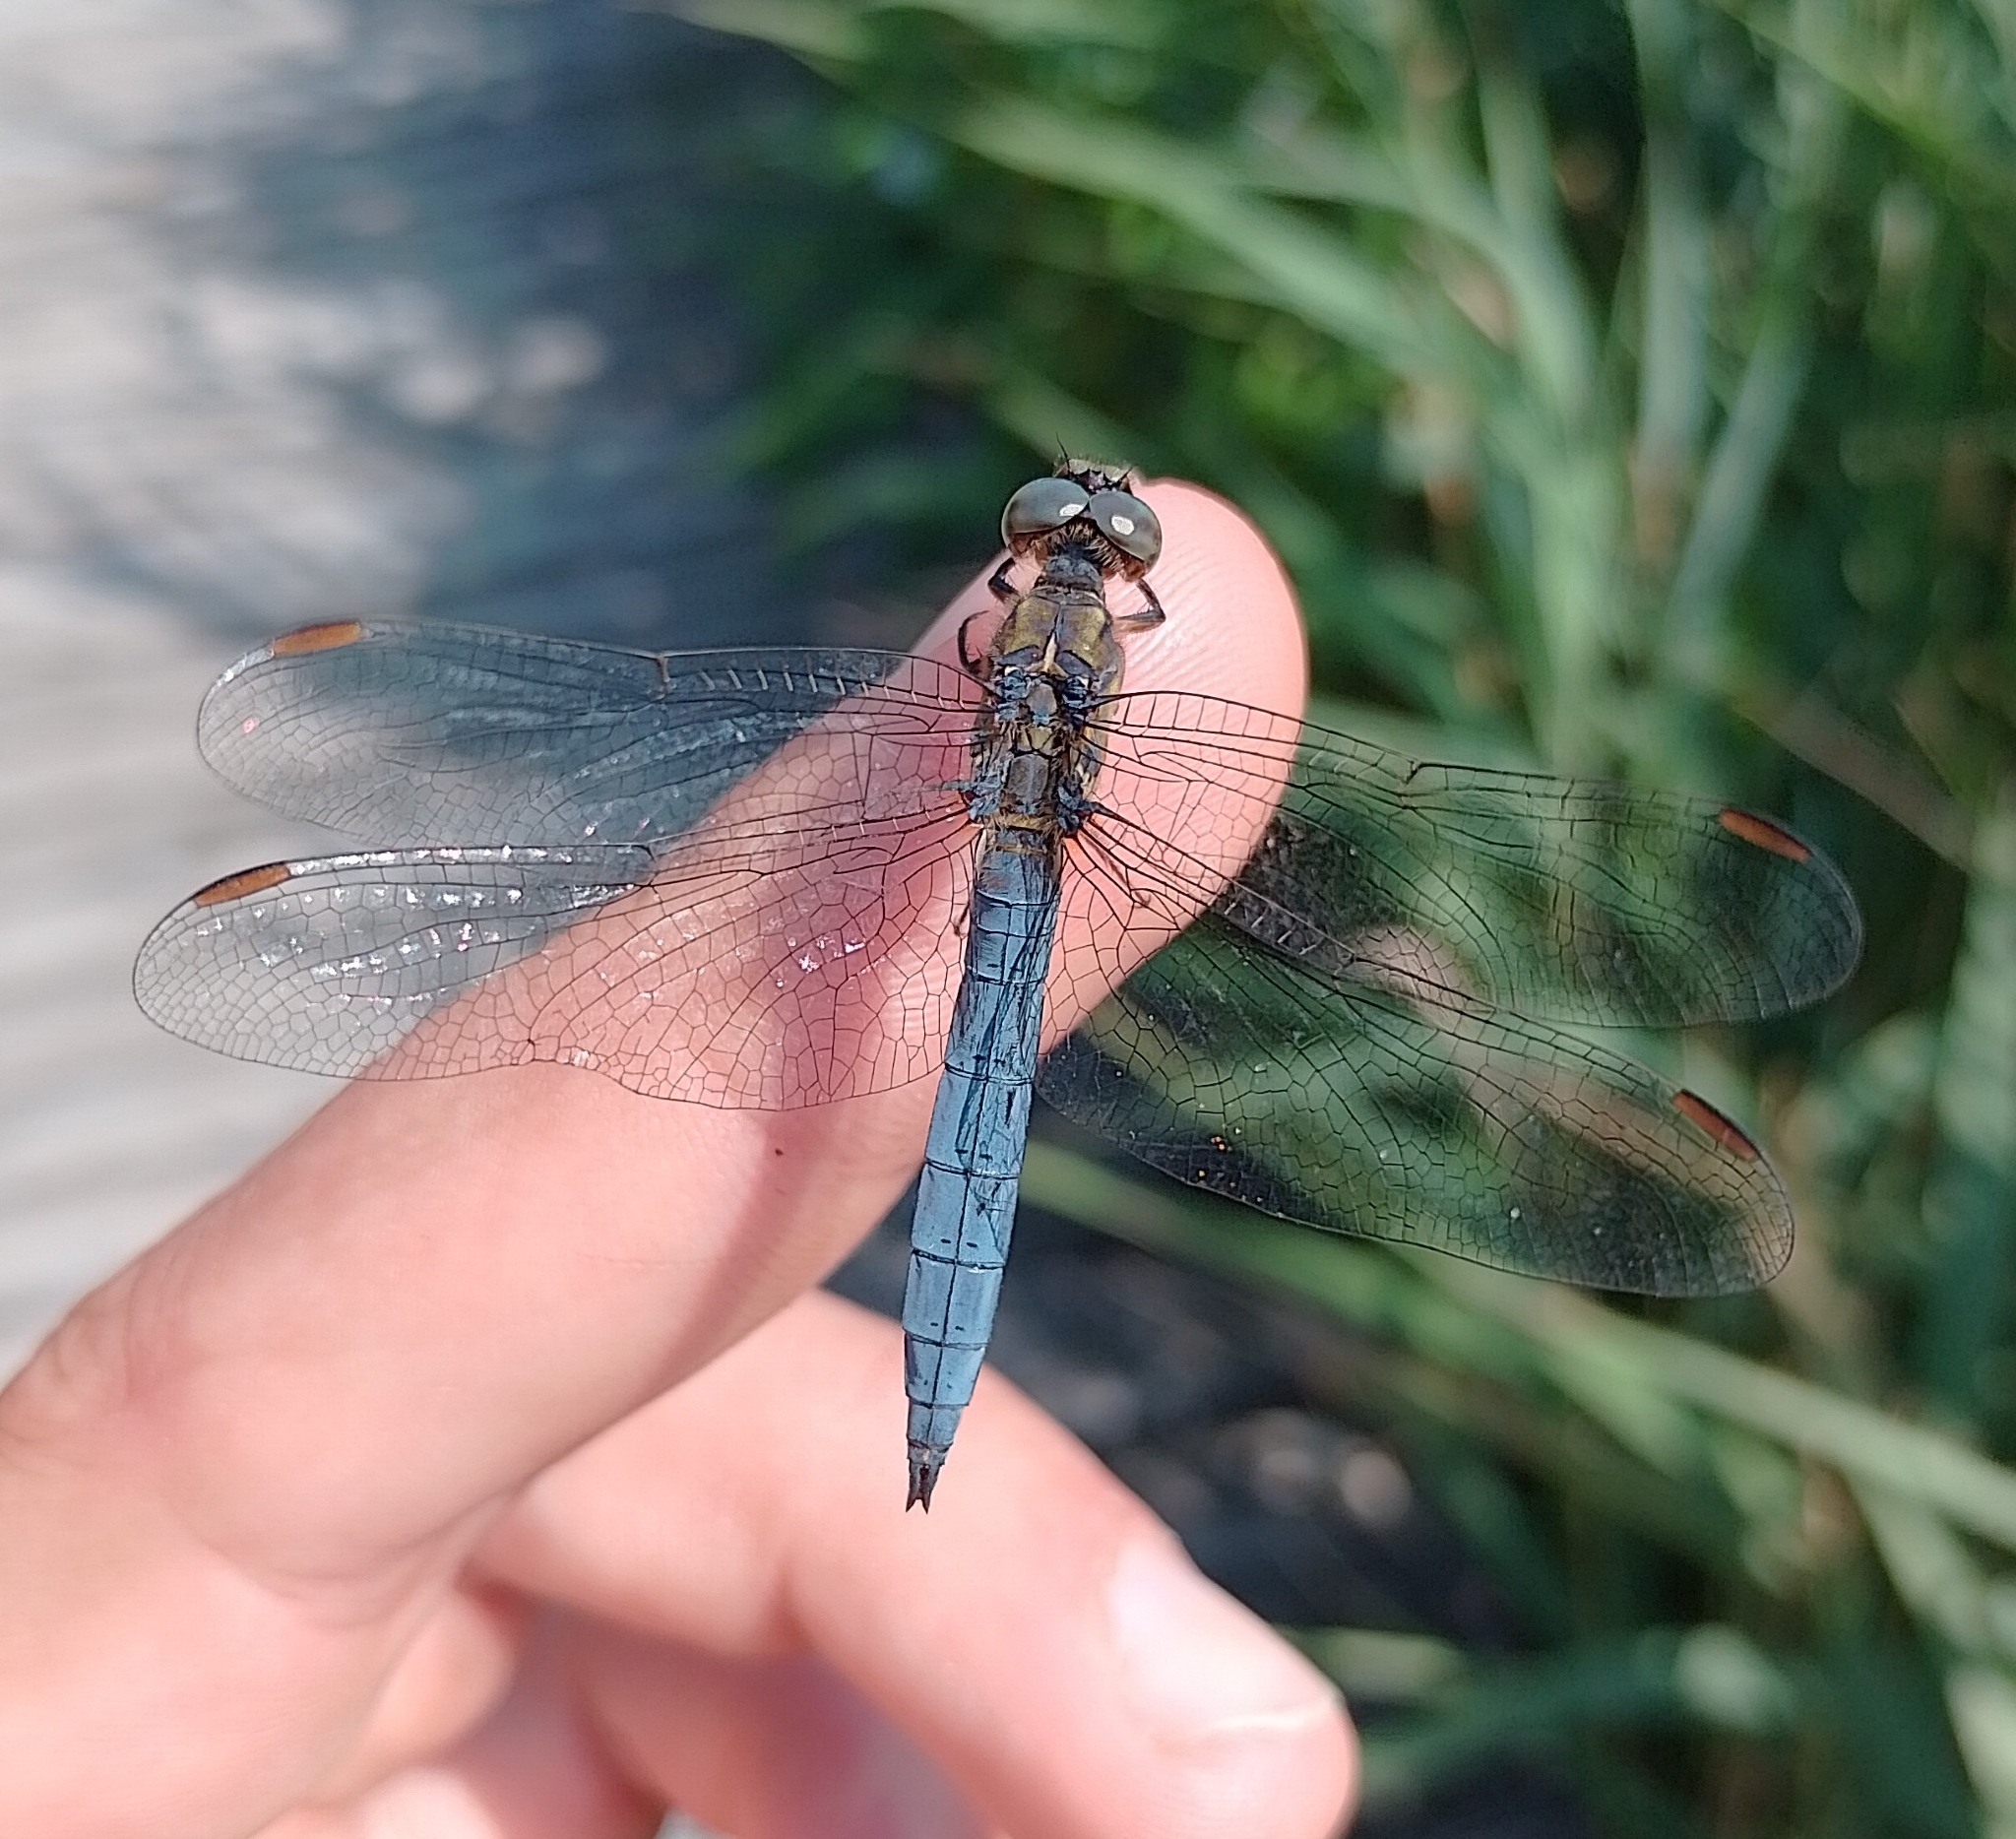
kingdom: Animalia
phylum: Arthropoda
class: Insecta
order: Odonata
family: Libellulidae
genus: Orthetrum
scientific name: Orthetrum coerulescens
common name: Keeled skimmer
